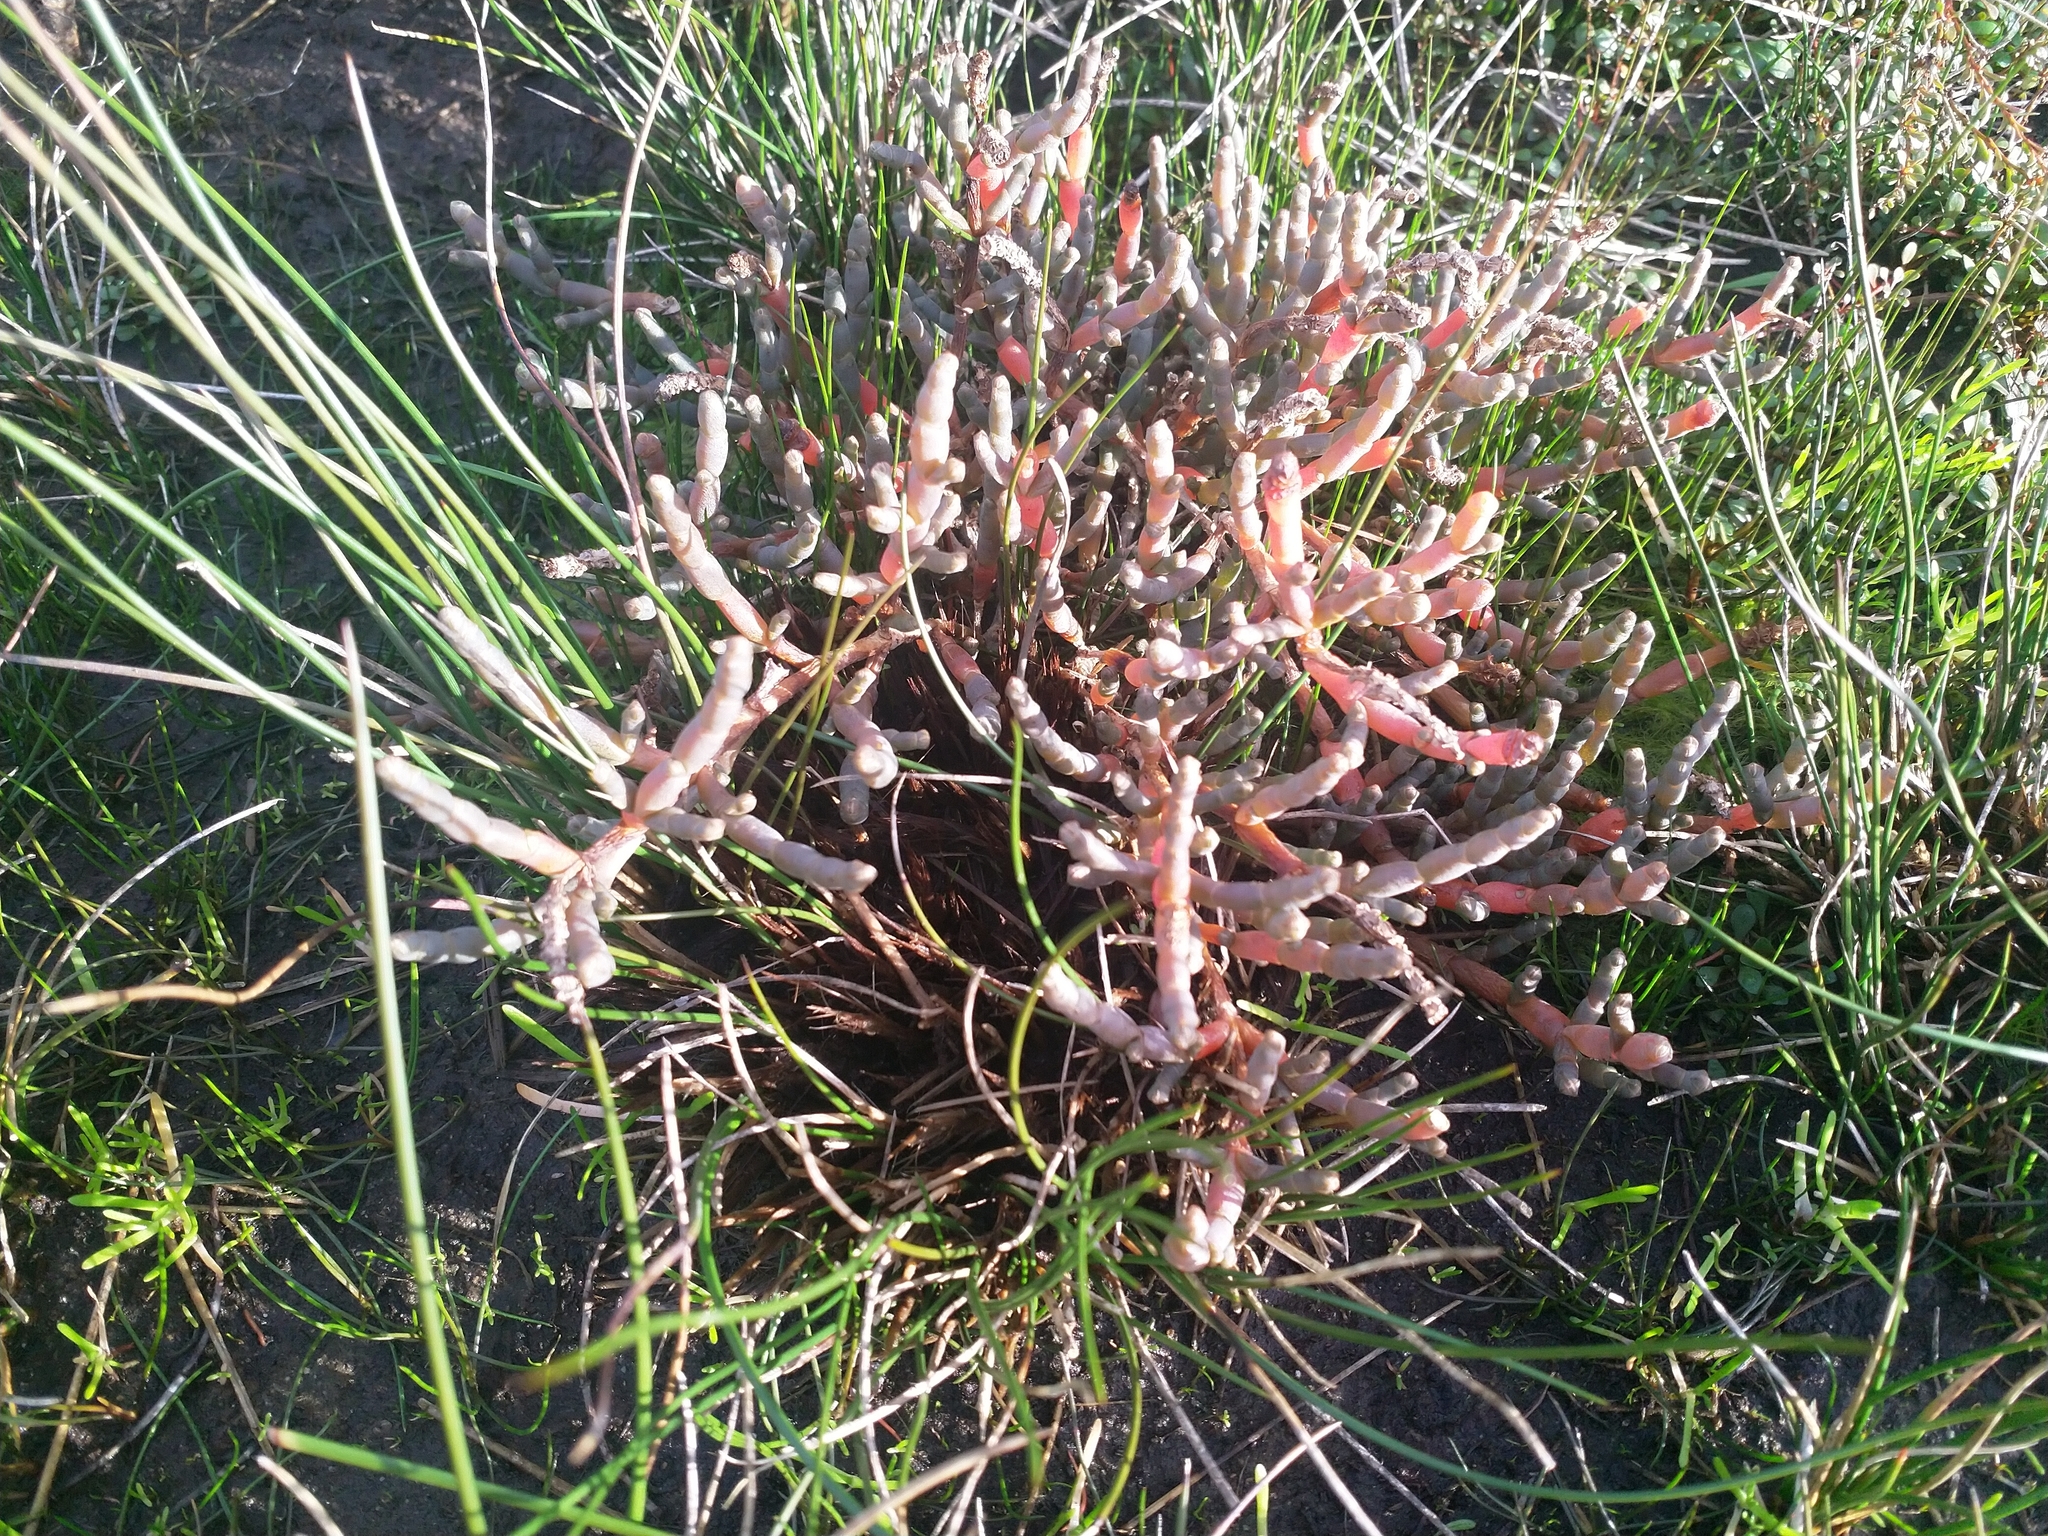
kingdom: Plantae
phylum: Tracheophyta
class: Magnoliopsida
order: Caryophyllales
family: Amaranthaceae
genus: Salicornia
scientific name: Salicornia quinqueflora
